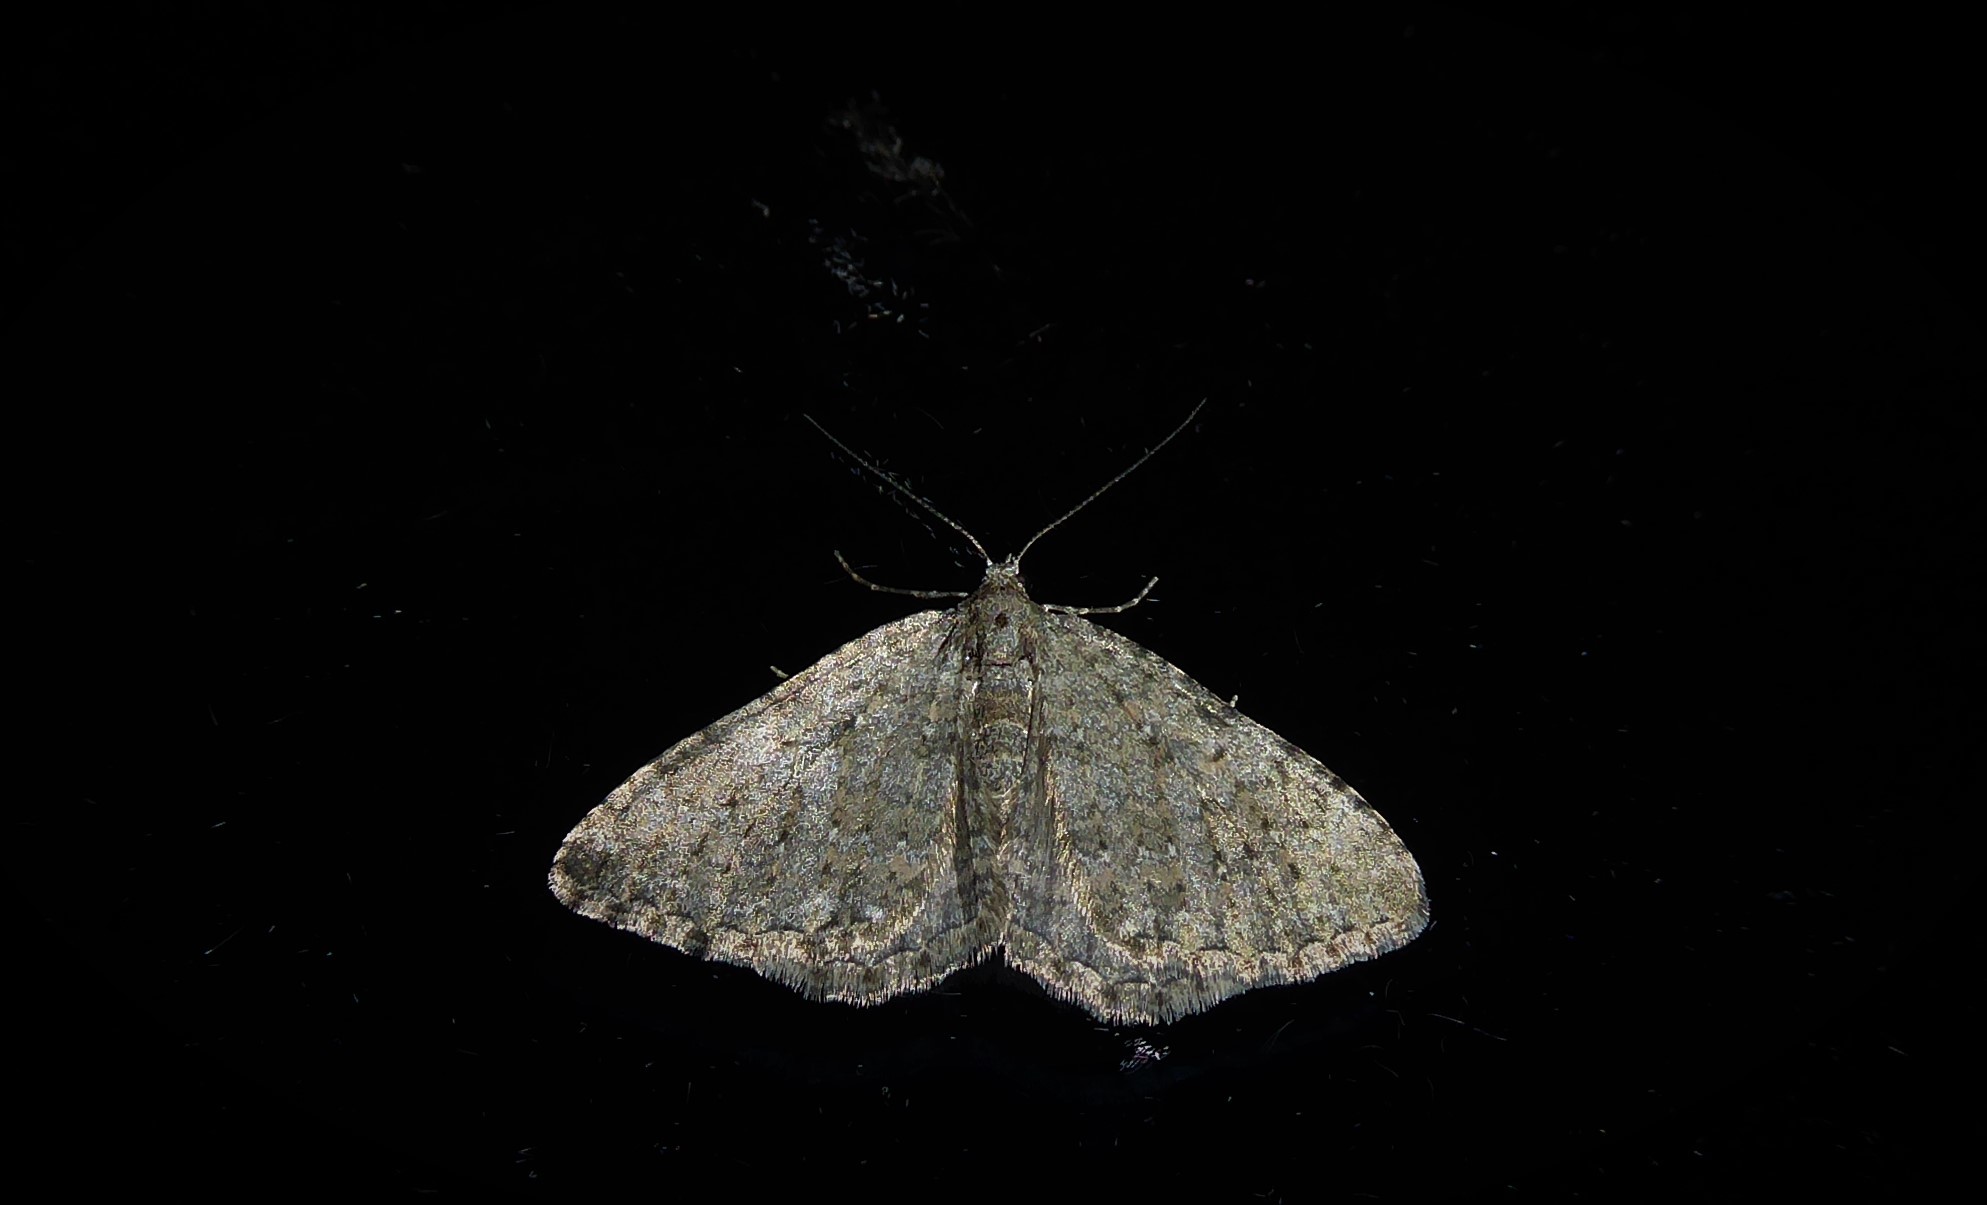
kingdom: Animalia
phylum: Arthropoda
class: Insecta
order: Lepidoptera
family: Geometridae
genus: Helastia
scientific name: Helastia corcularia
